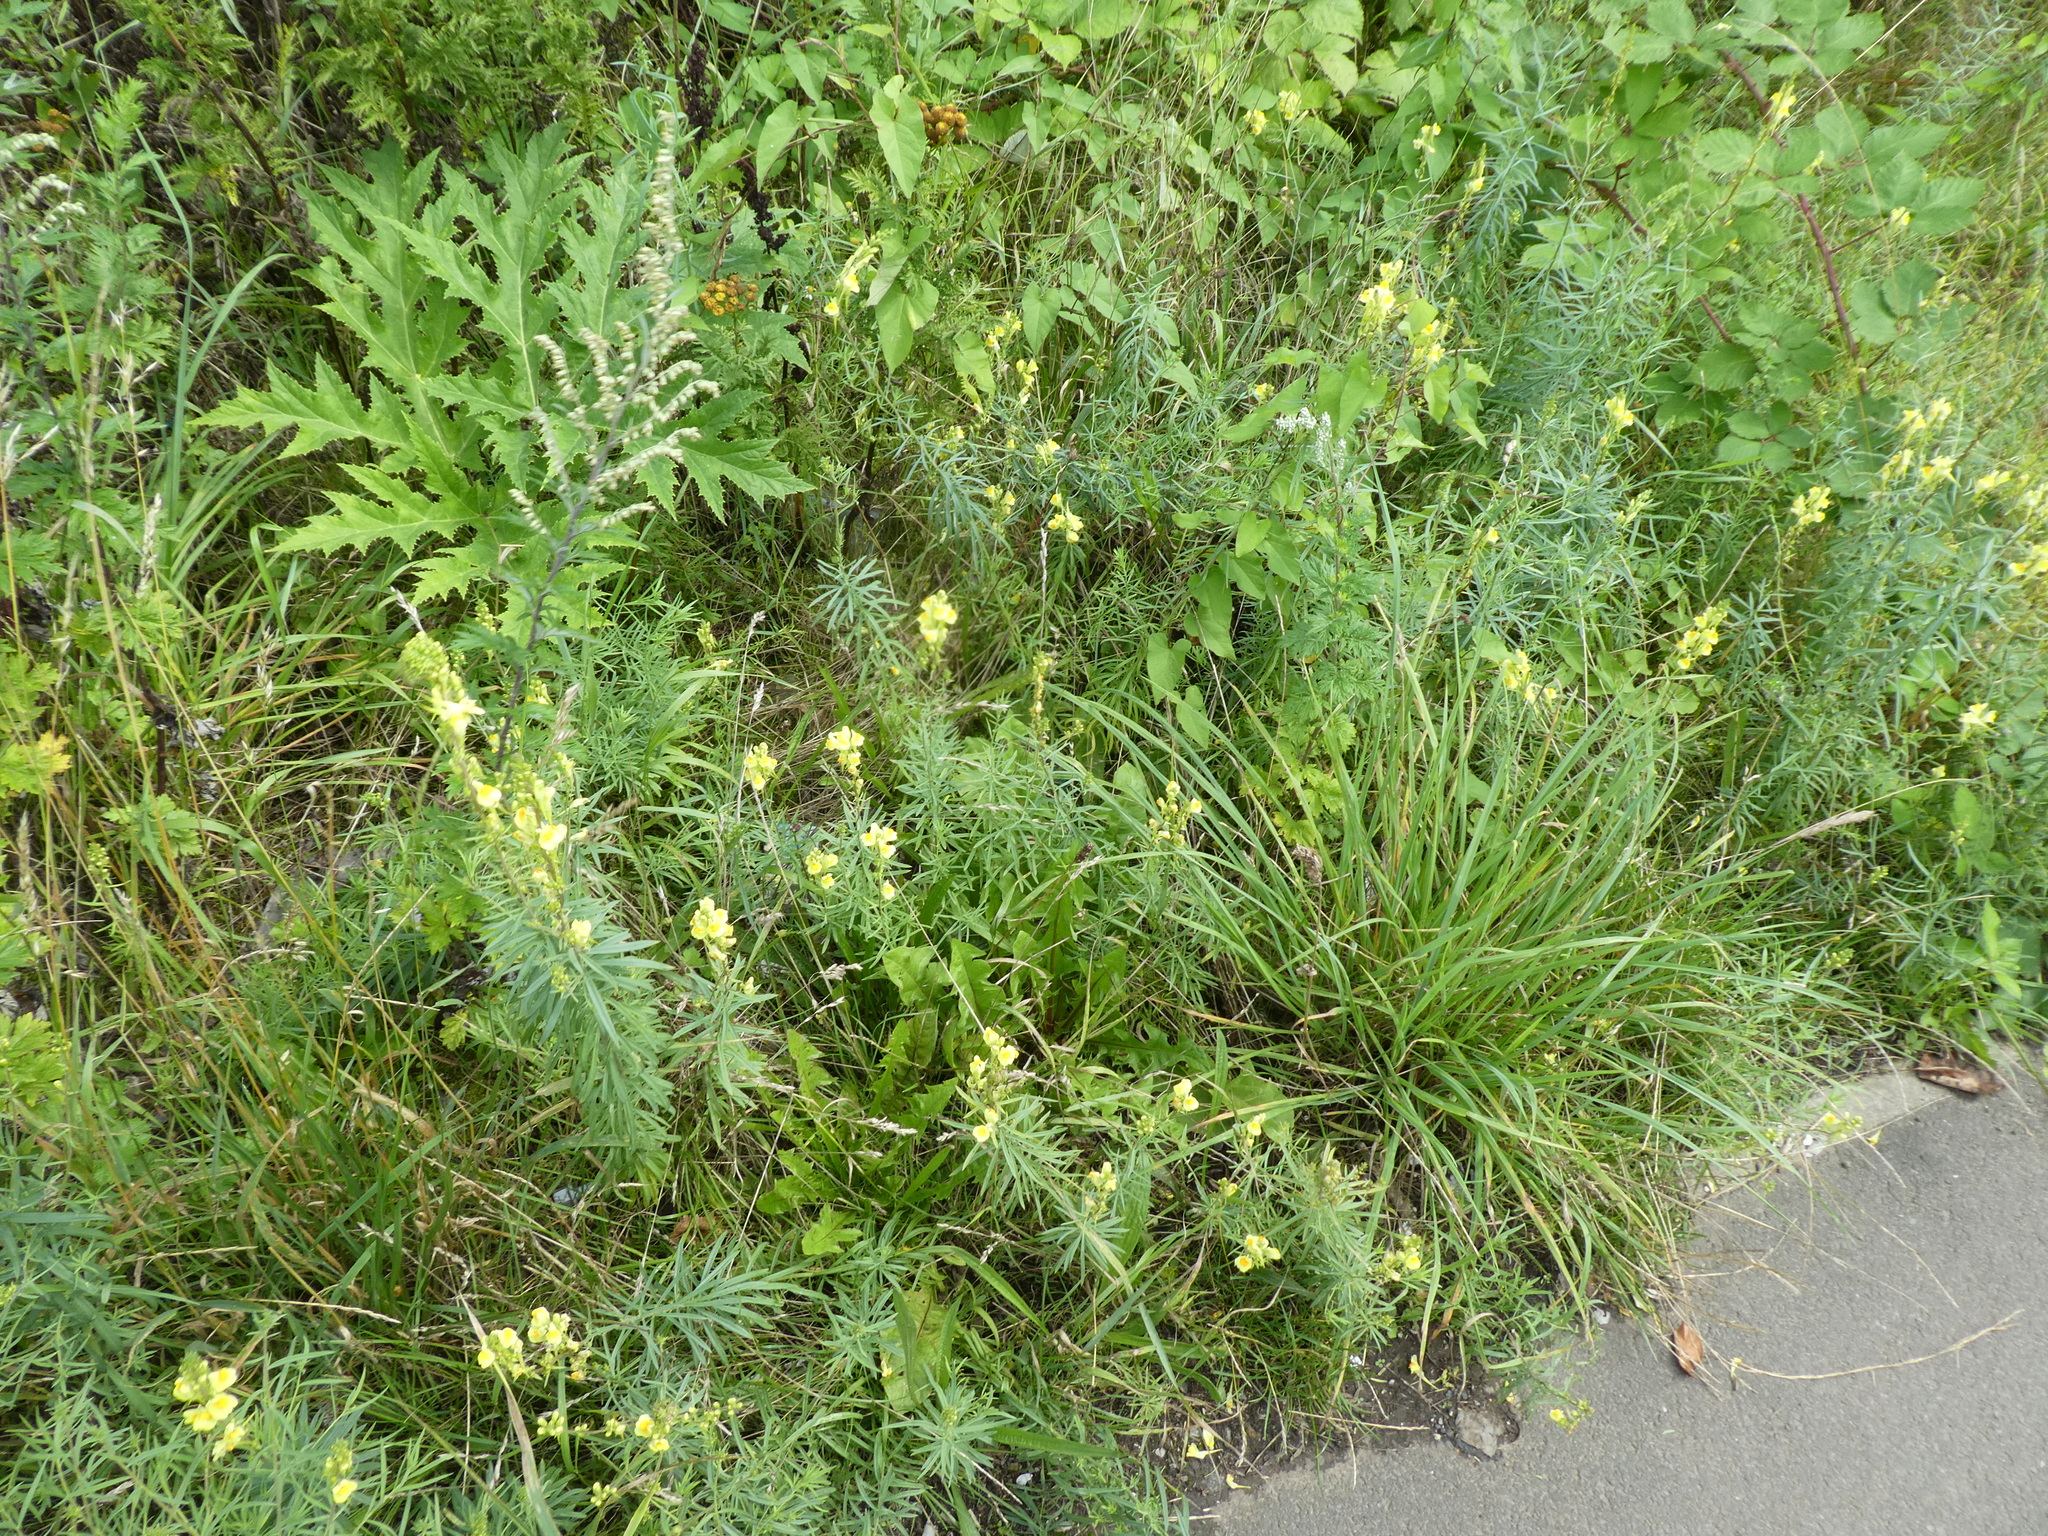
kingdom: Plantae
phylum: Tracheophyta
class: Magnoliopsida
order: Lamiales
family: Plantaginaceae
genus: Linaria
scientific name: Linaria vulgaris
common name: Butter and eggs
